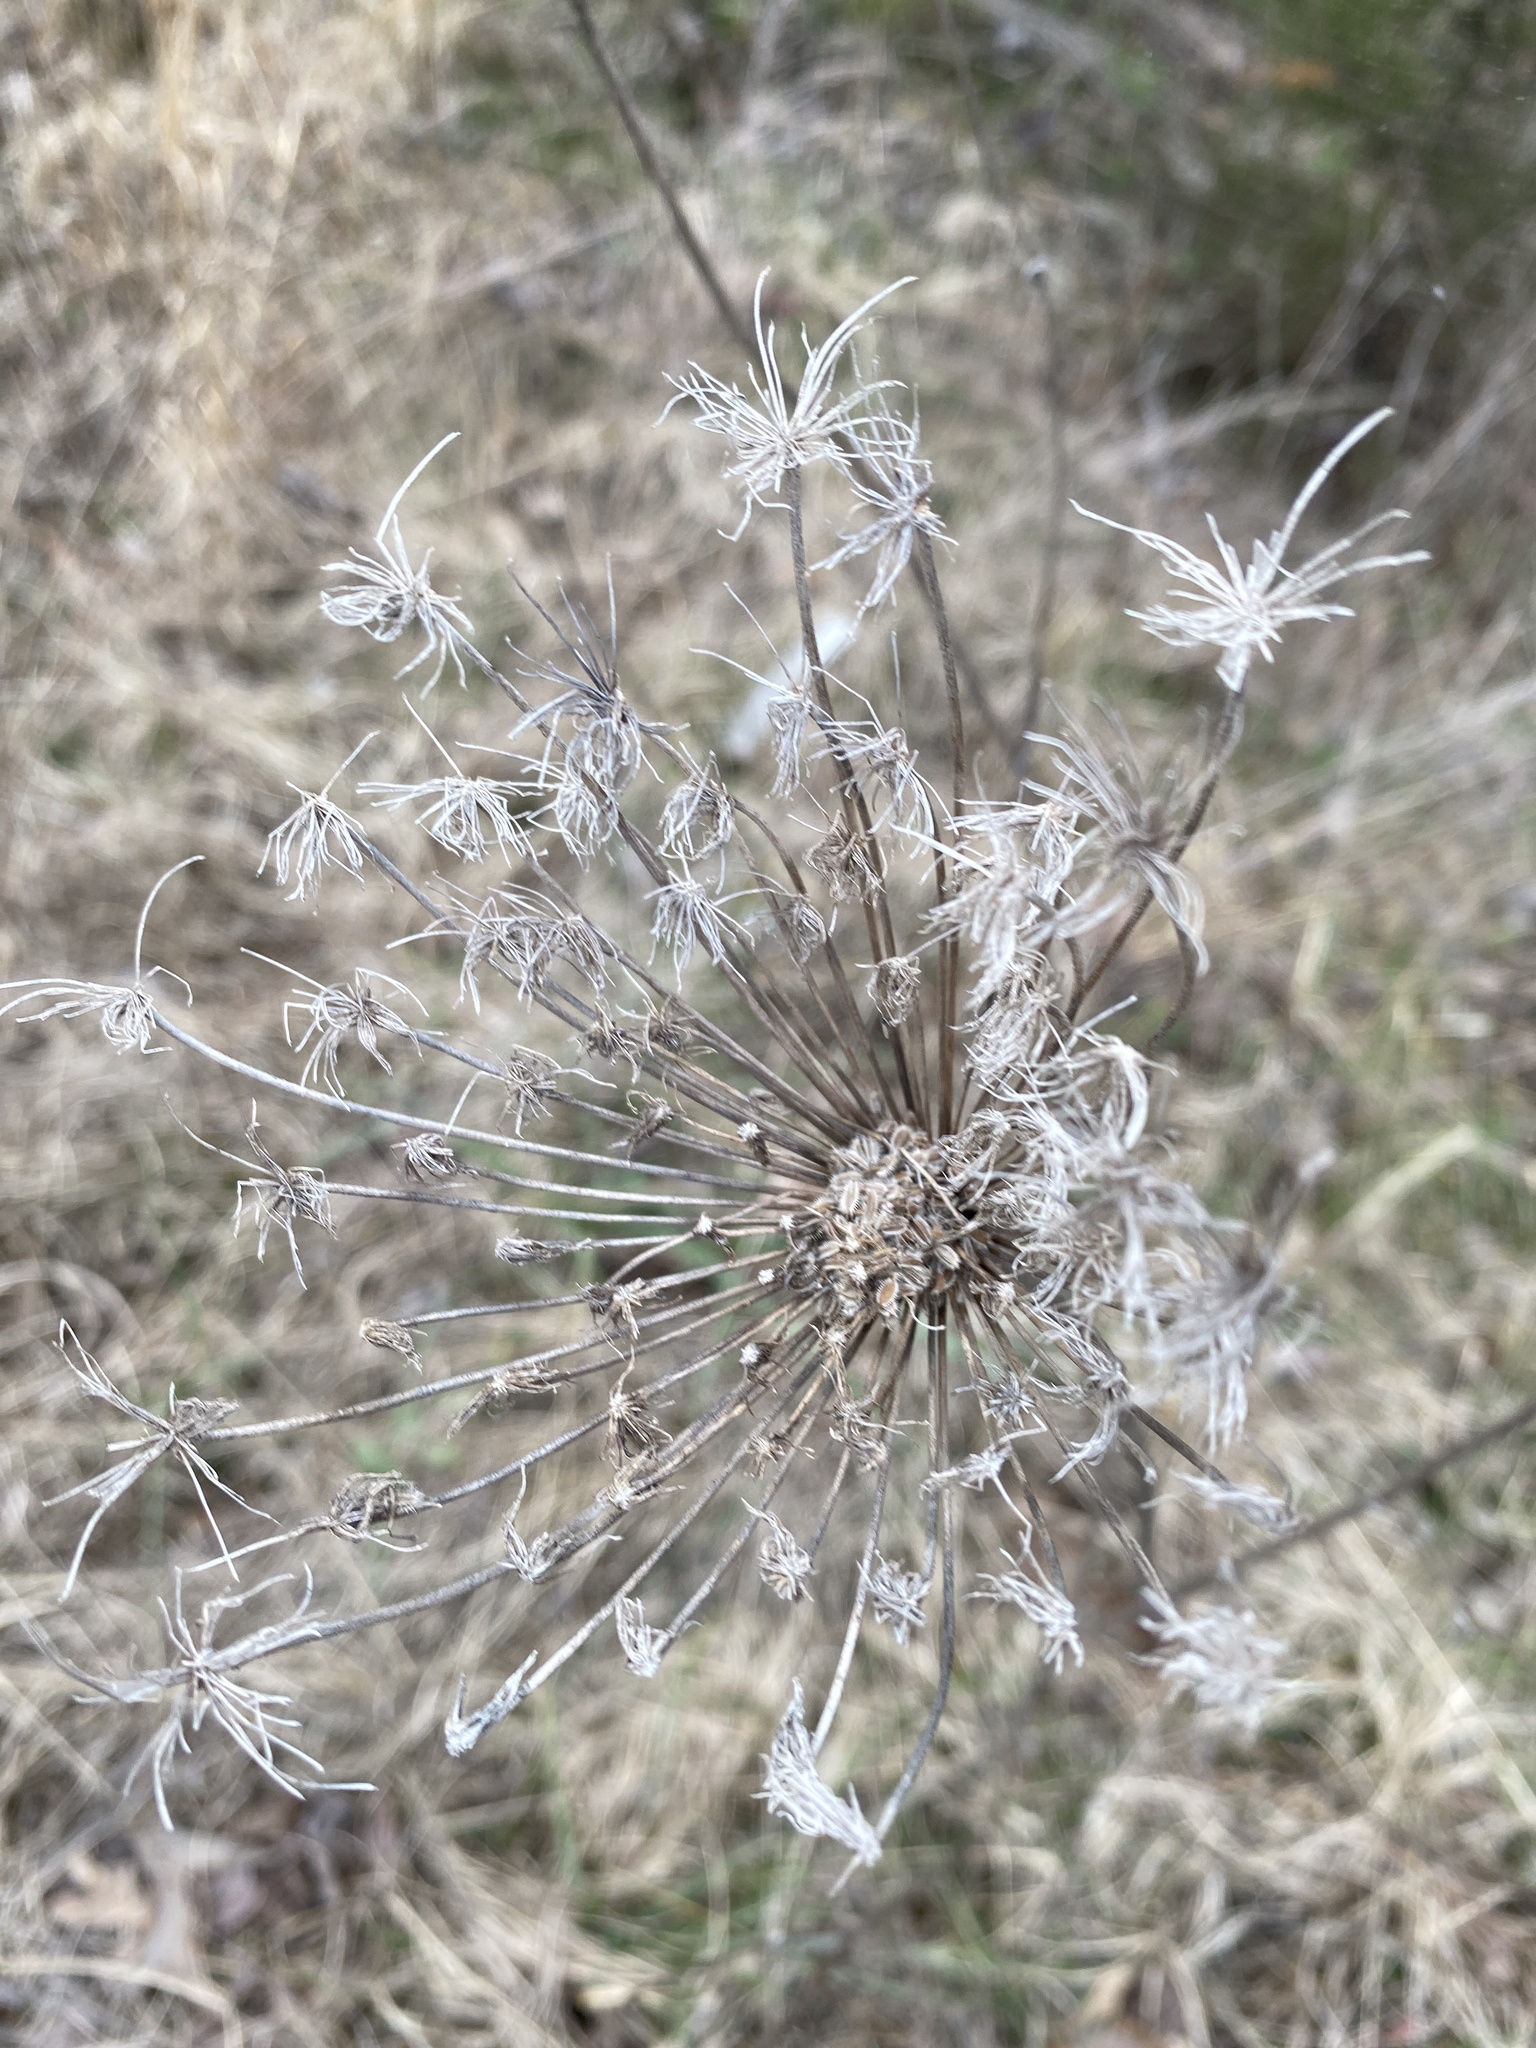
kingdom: Plantae
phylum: Tracheophyta
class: Magnoliopsida
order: Apiales
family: Apiaceae
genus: Daucus
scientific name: Daucus carota
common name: Wild carrot
